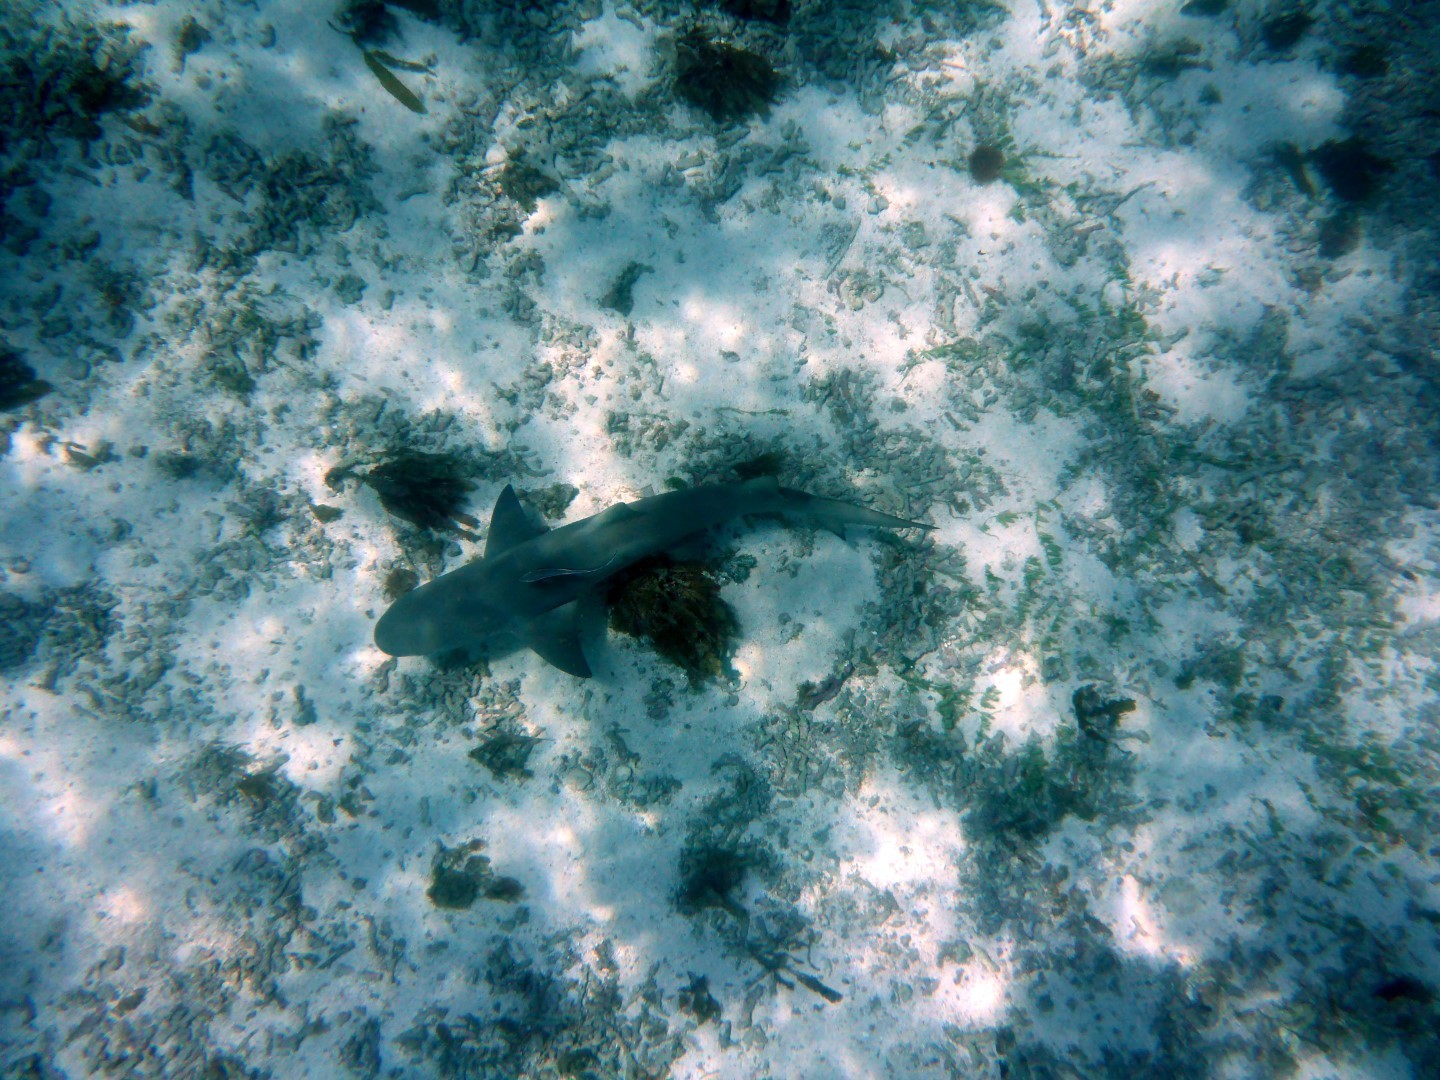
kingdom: Animalia
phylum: Chordata
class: Elasmobranchii
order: Carcharhiniformes
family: Carcharhinidae
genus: Negaprion
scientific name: Negaprion brevirostris
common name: Lemon shark
